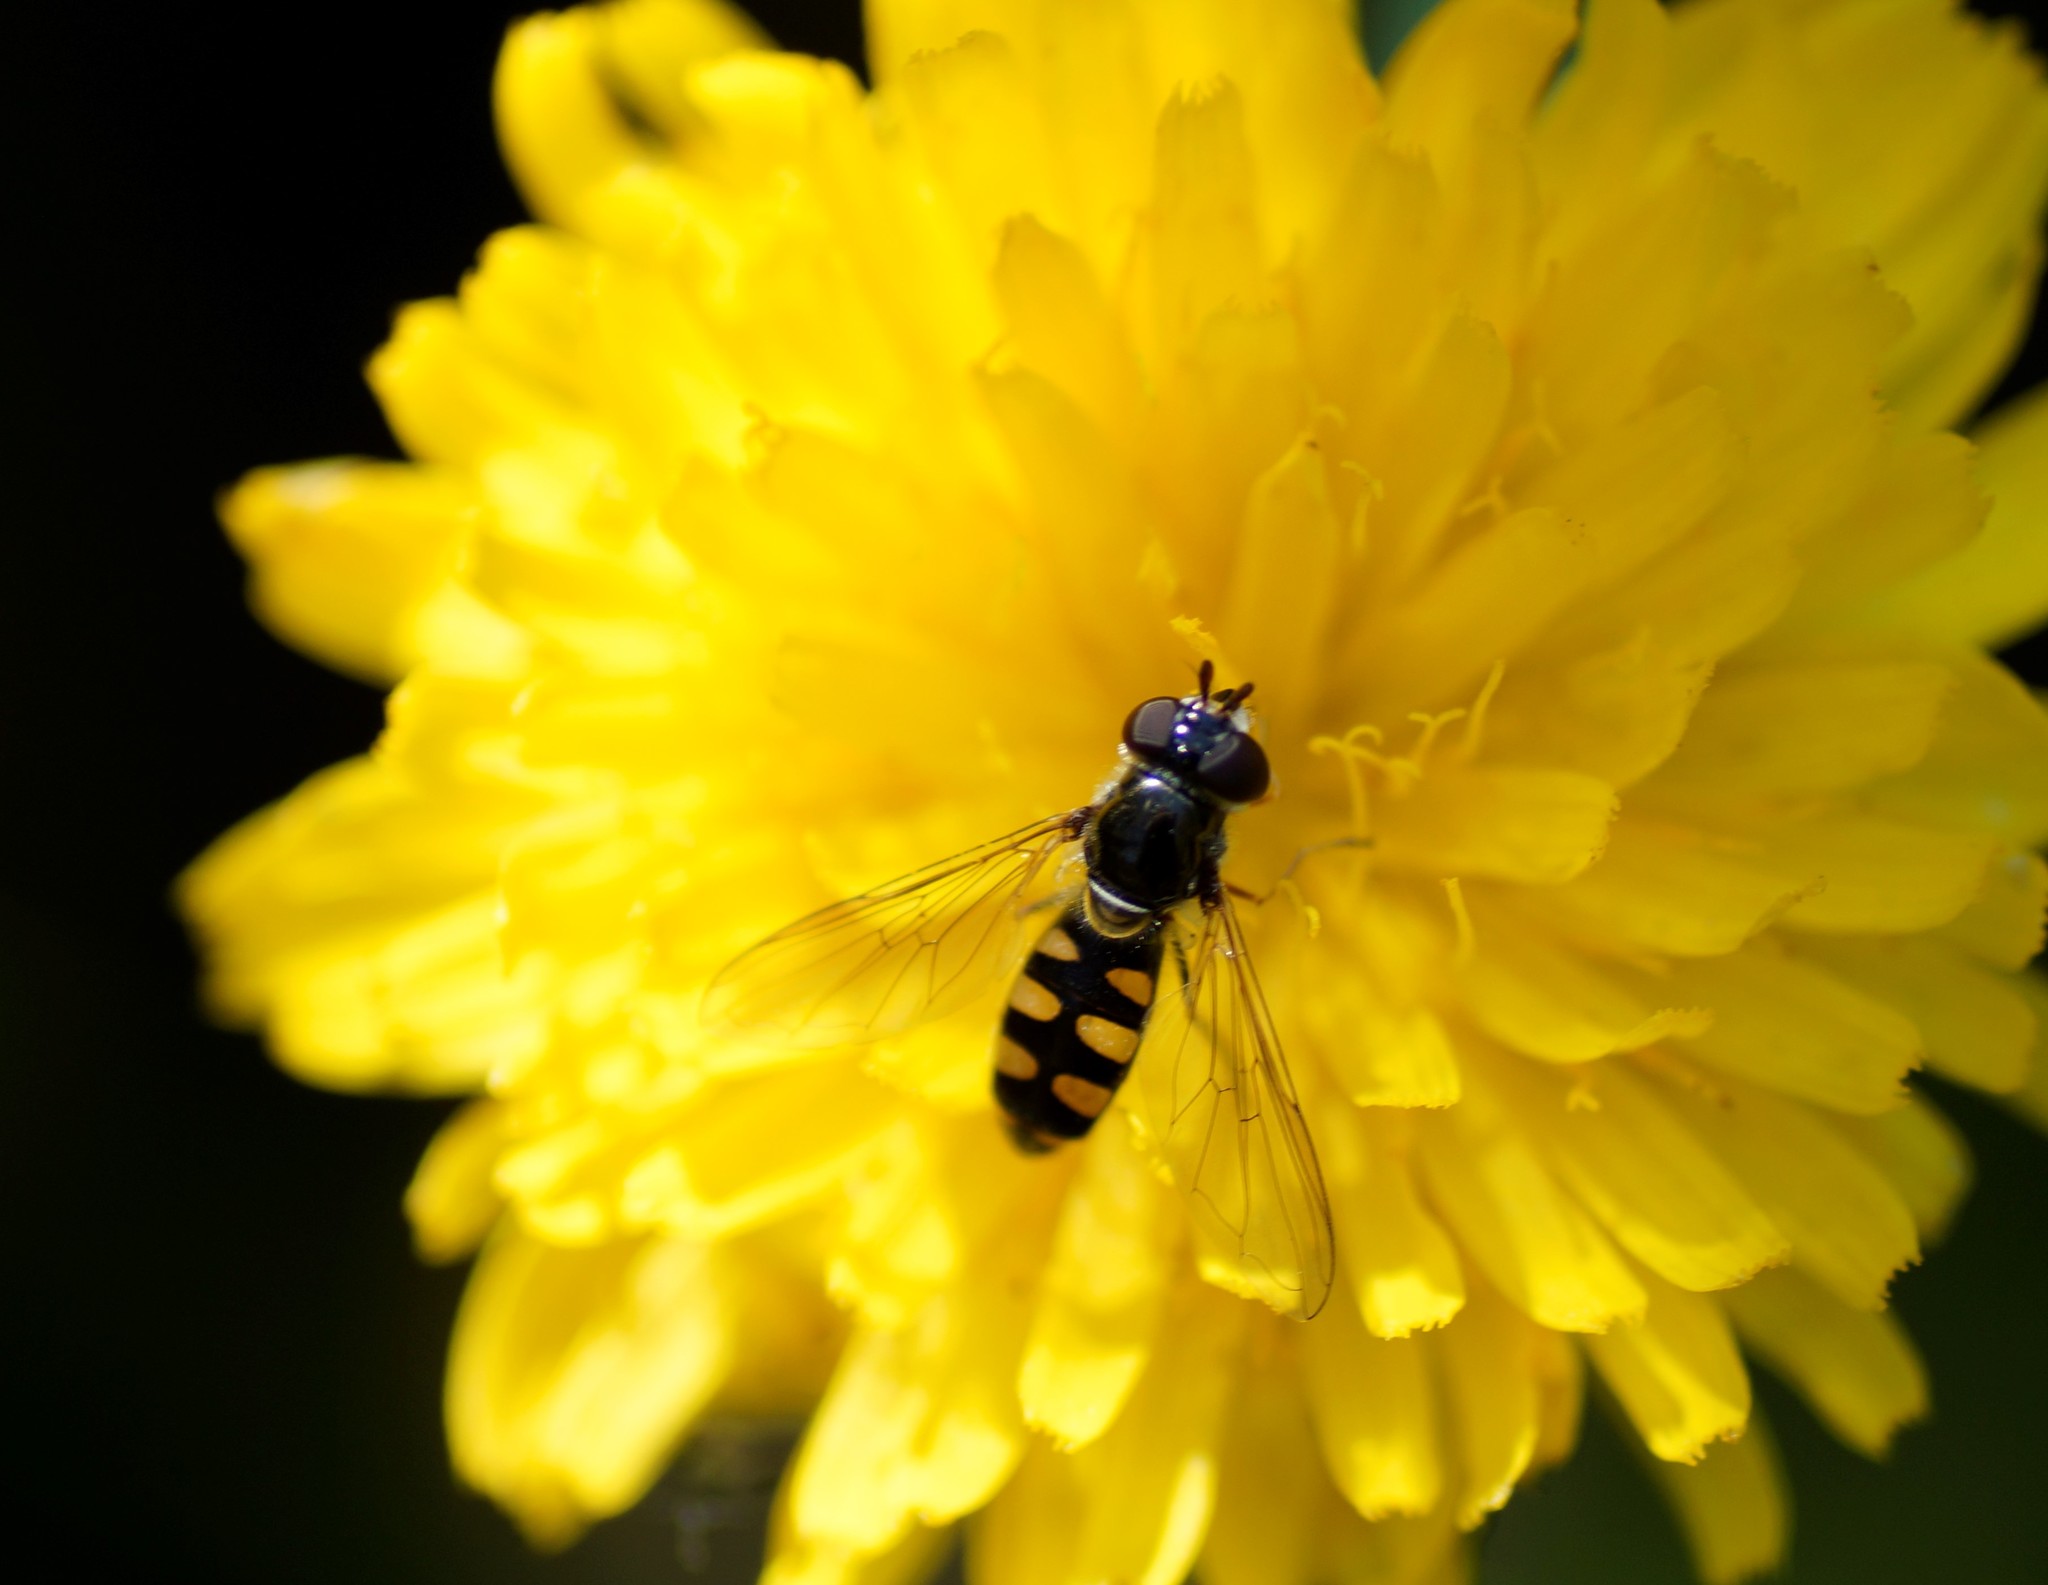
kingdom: Animalia
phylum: Arthropoda
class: Insecta
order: Diptera
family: Syrphidae
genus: Melangyna
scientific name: Melangyna viridiceps
